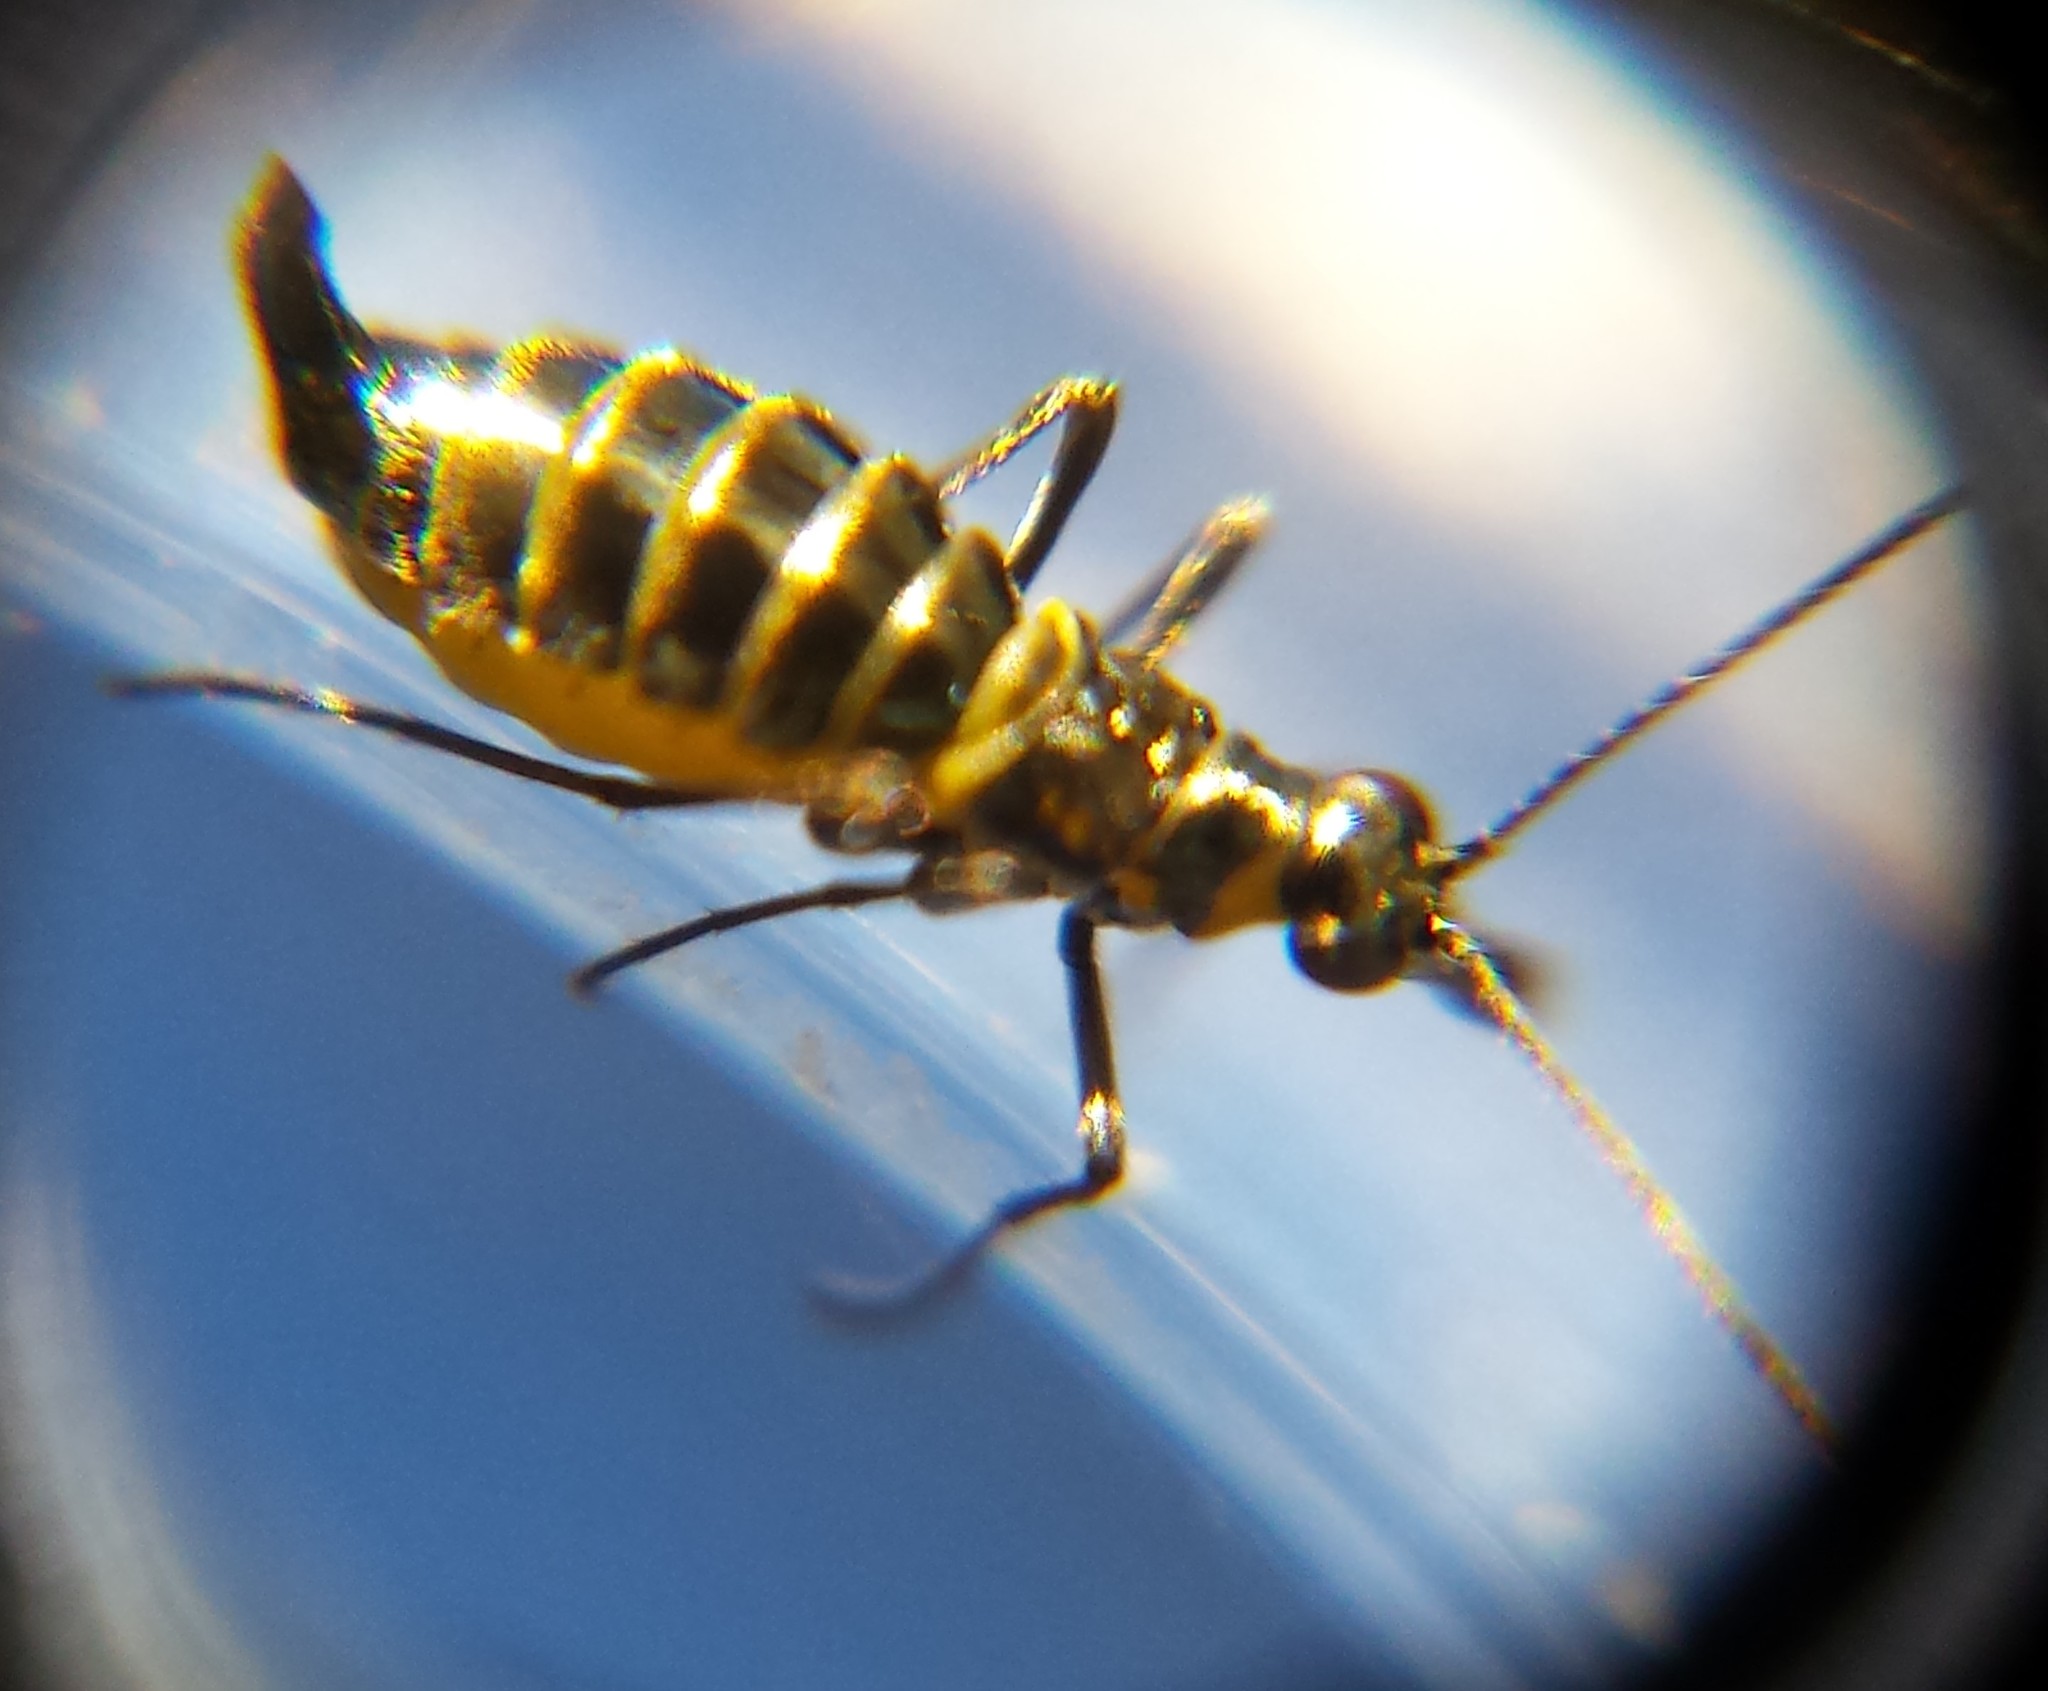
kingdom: Animalia
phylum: Arthropoda
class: Insecta
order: Mecoptera
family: Boreidae
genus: Boreus
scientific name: Boreus brumalis
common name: Mid-winter boreus
